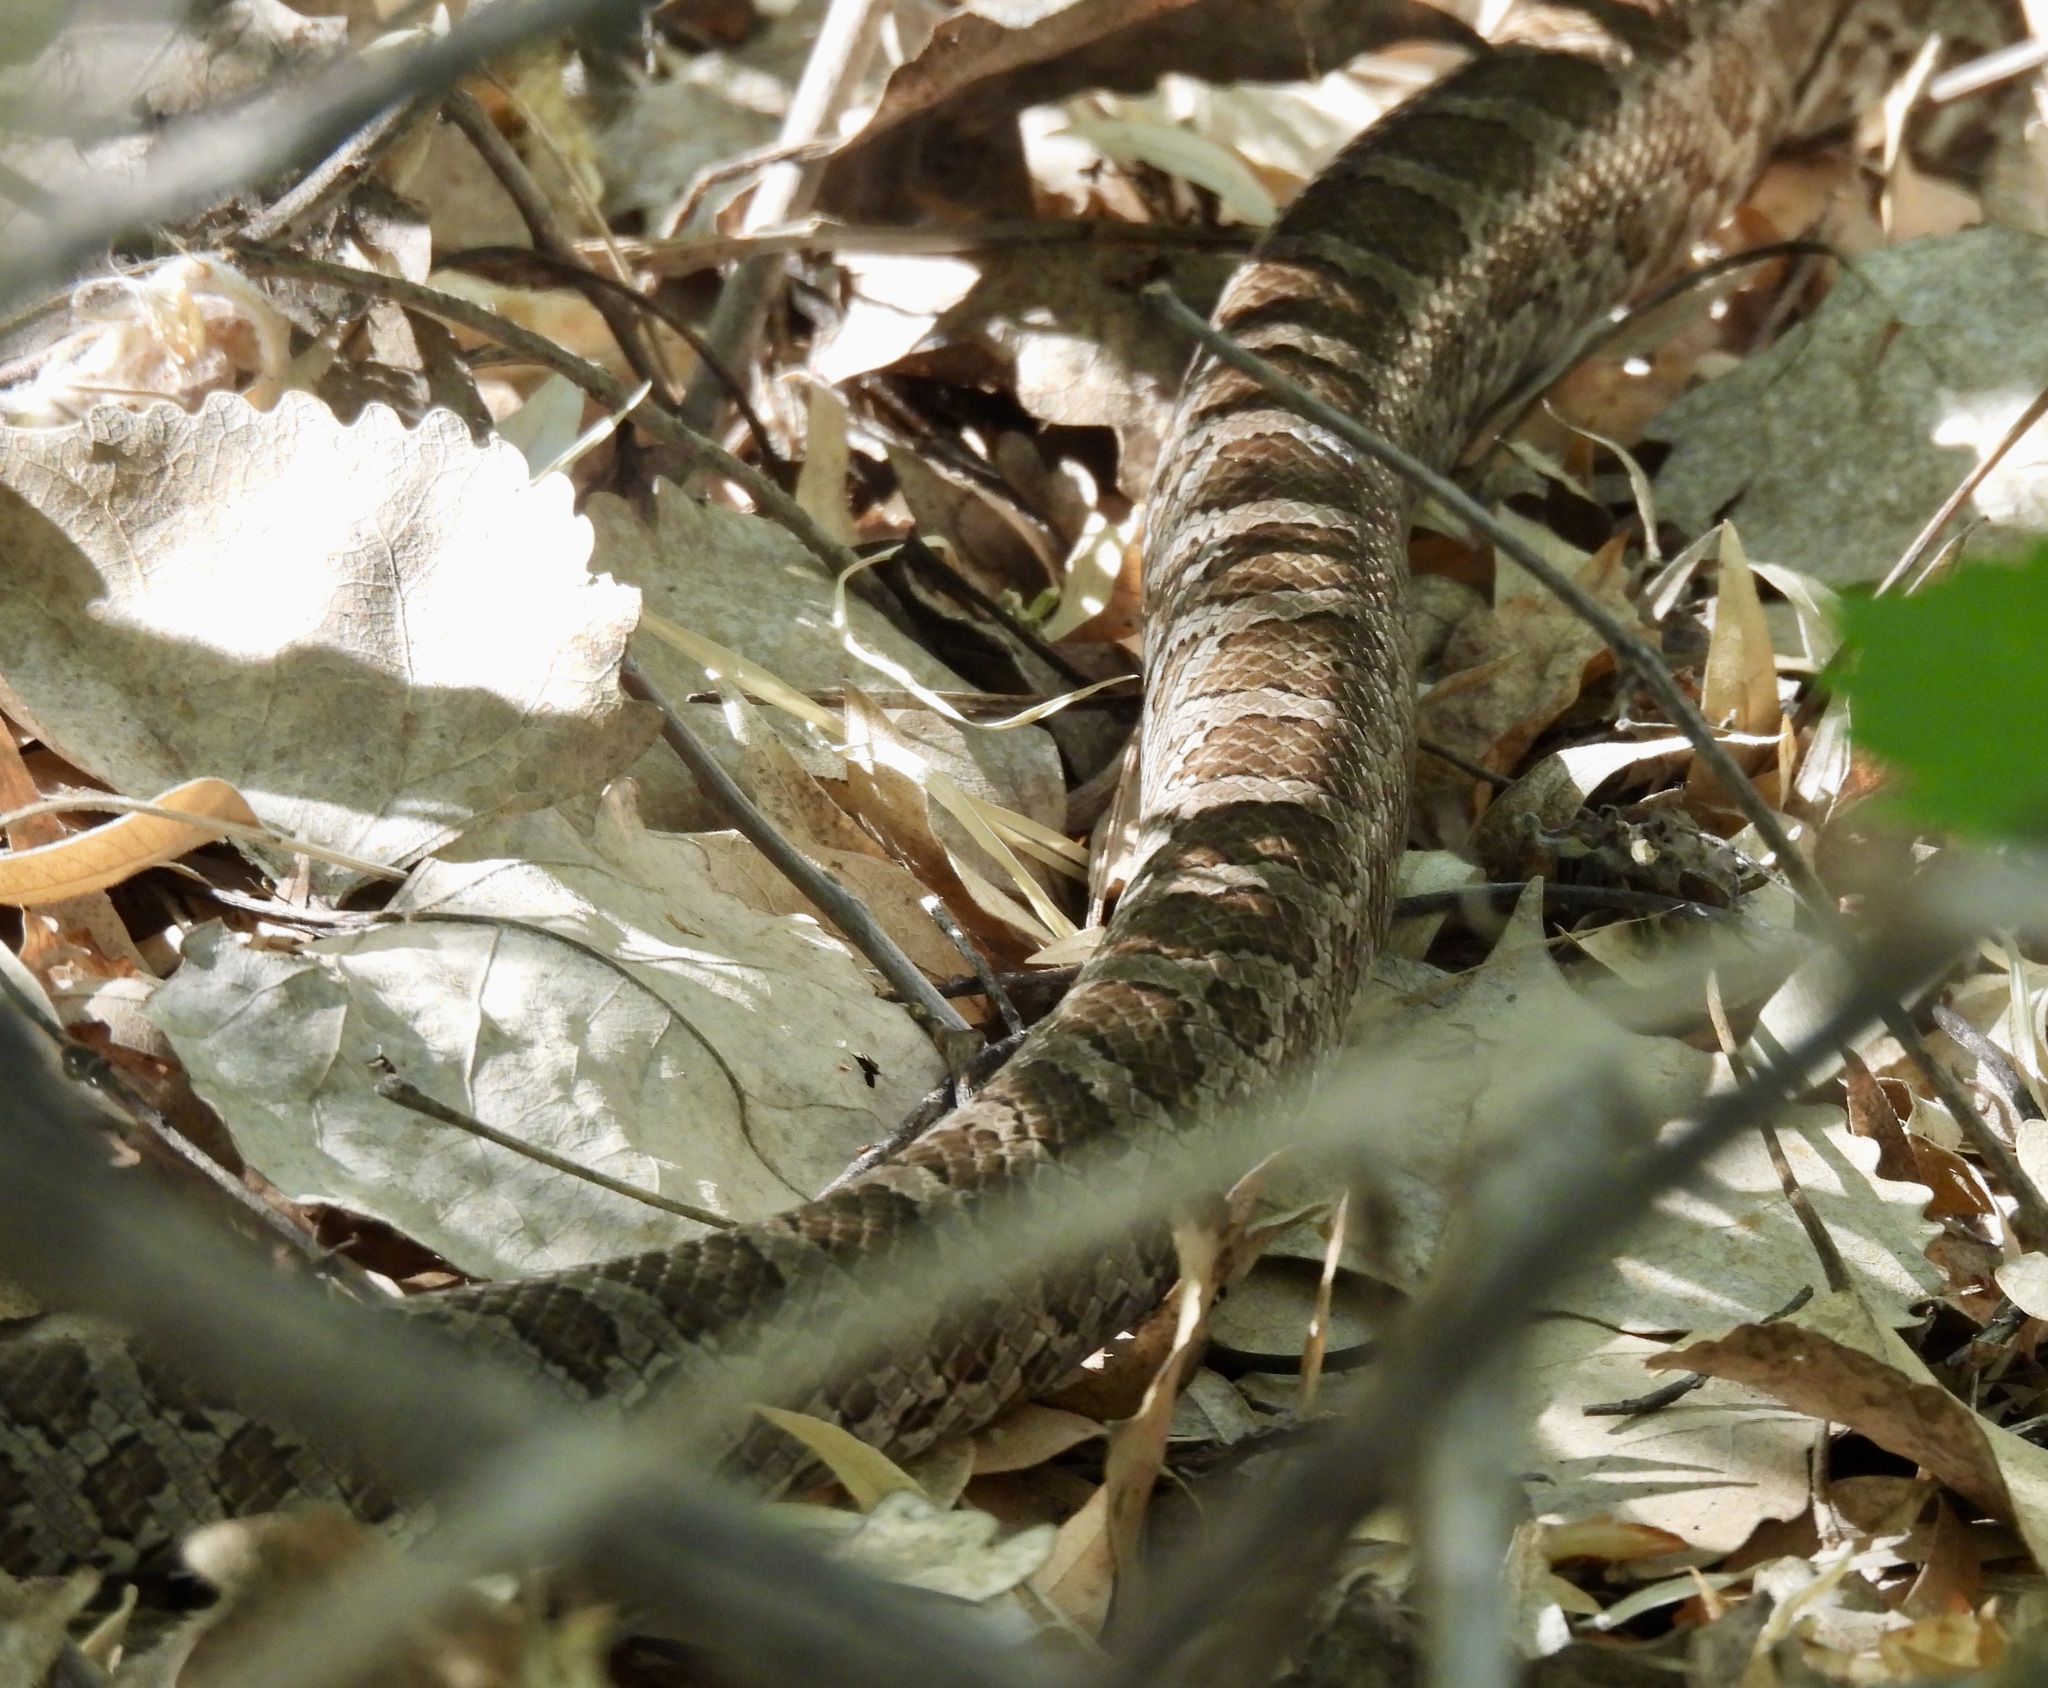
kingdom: Animalia
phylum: Chordata
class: Squamata
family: Colubridae
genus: Pantherophis
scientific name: Pantherophis emoryi
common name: Great plains rat snake
